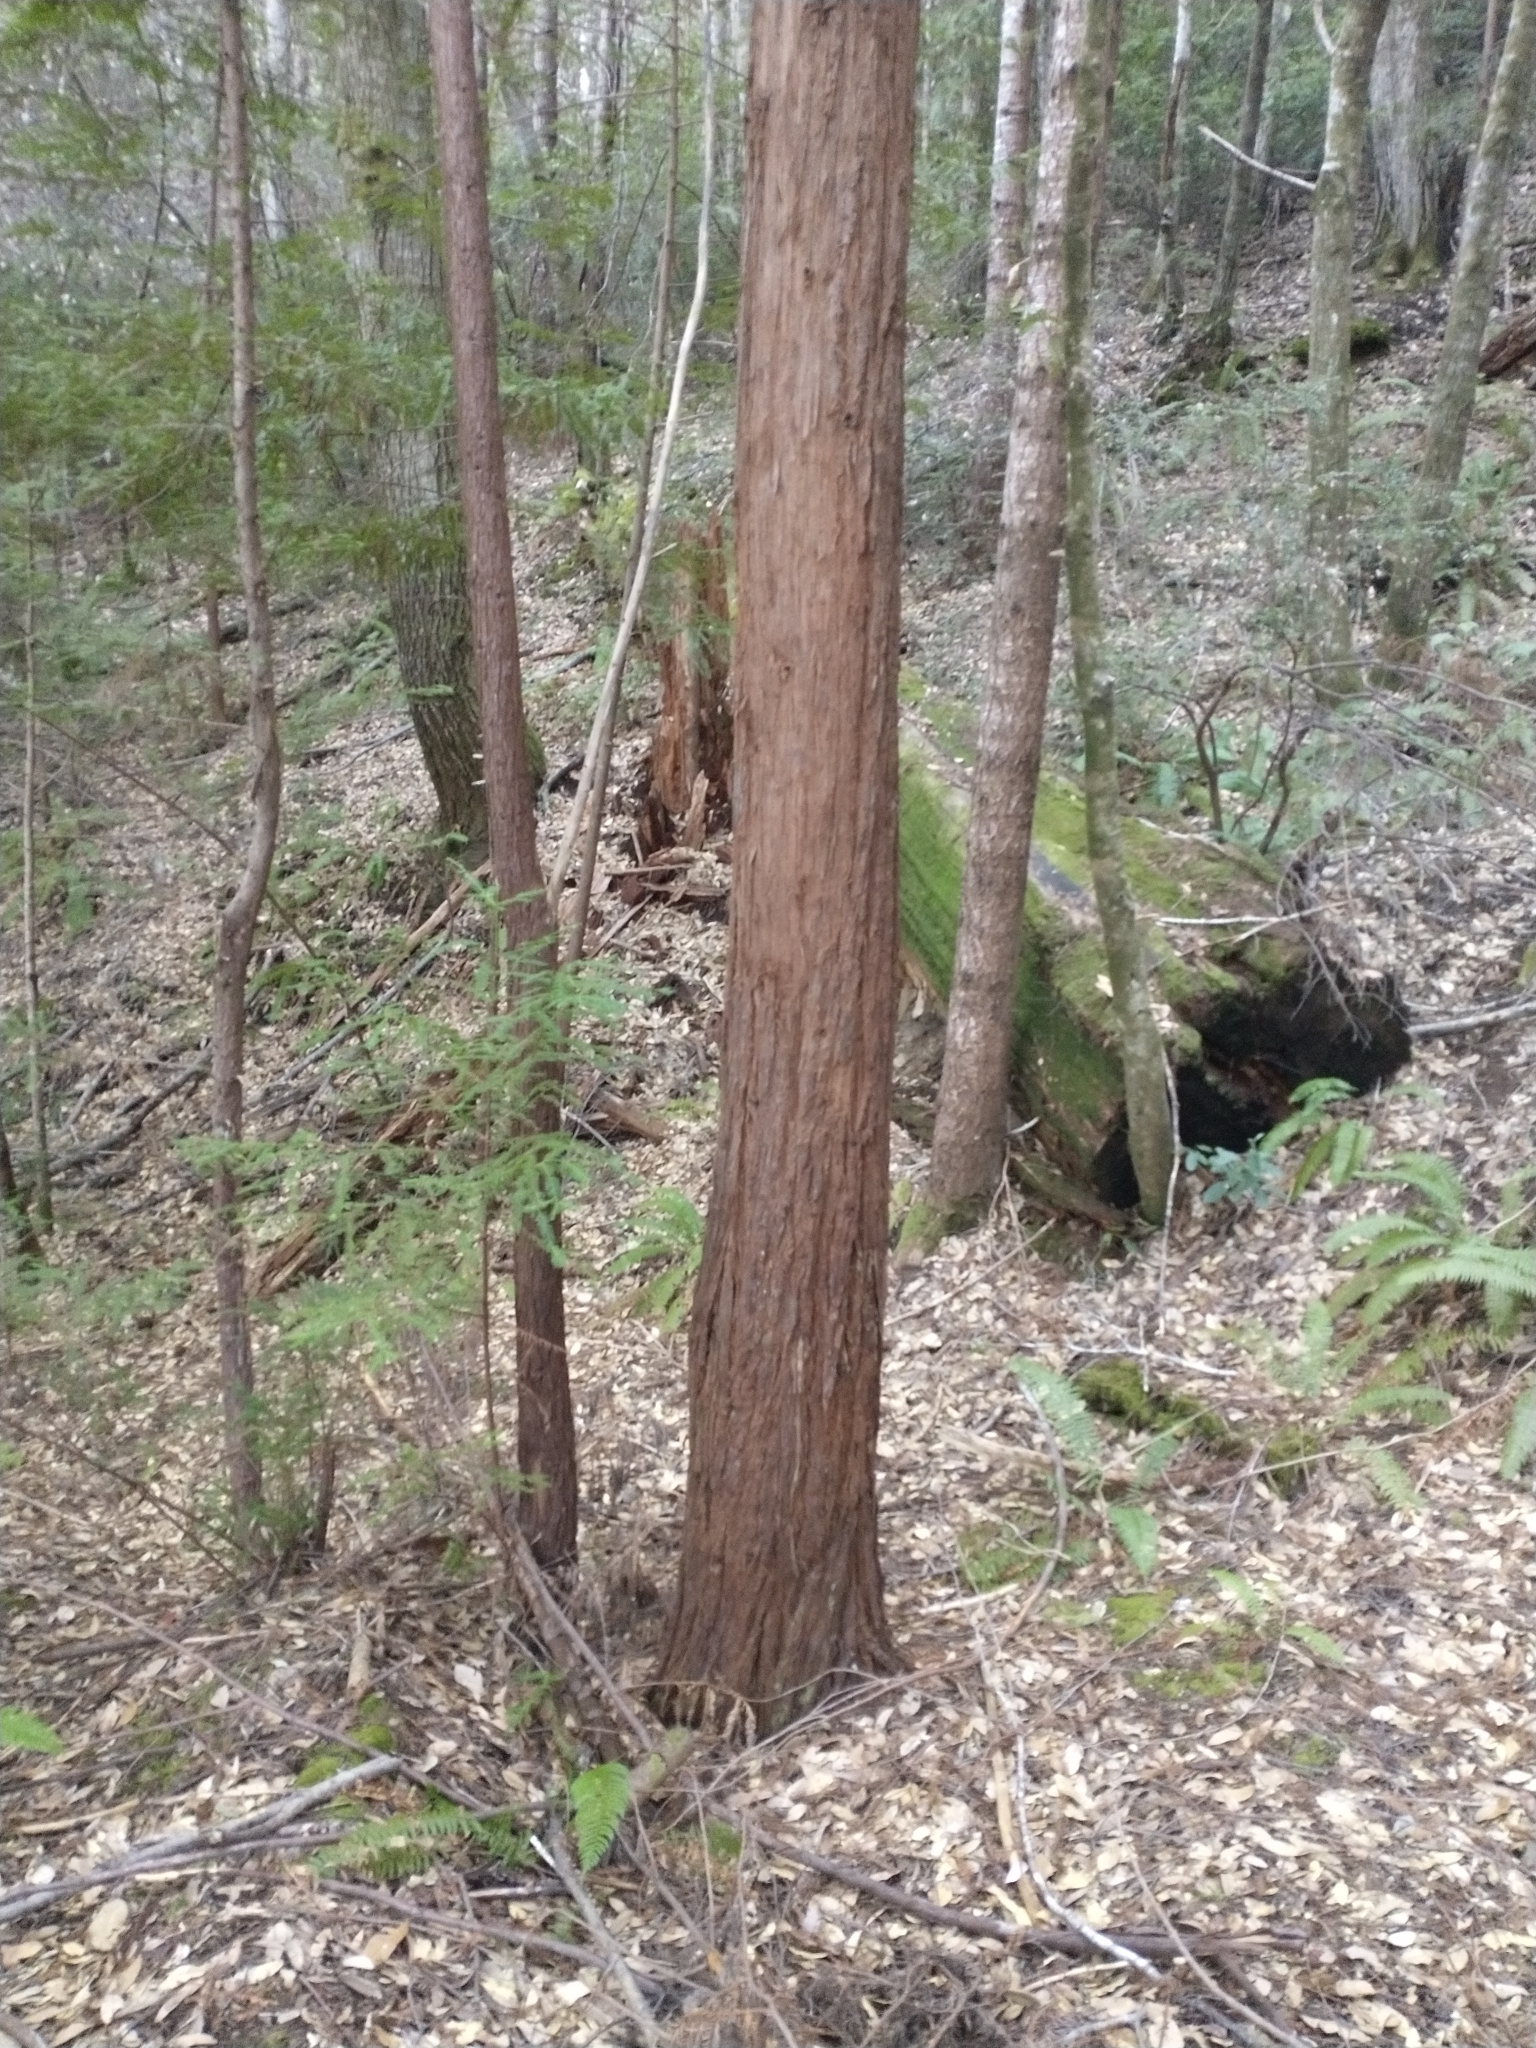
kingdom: Plantae
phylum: Tracheophyta
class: Pinopsida
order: Pinales
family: Cupressaceae
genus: Sequoia
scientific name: Sequoia sempervirens
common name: Coast redwood
